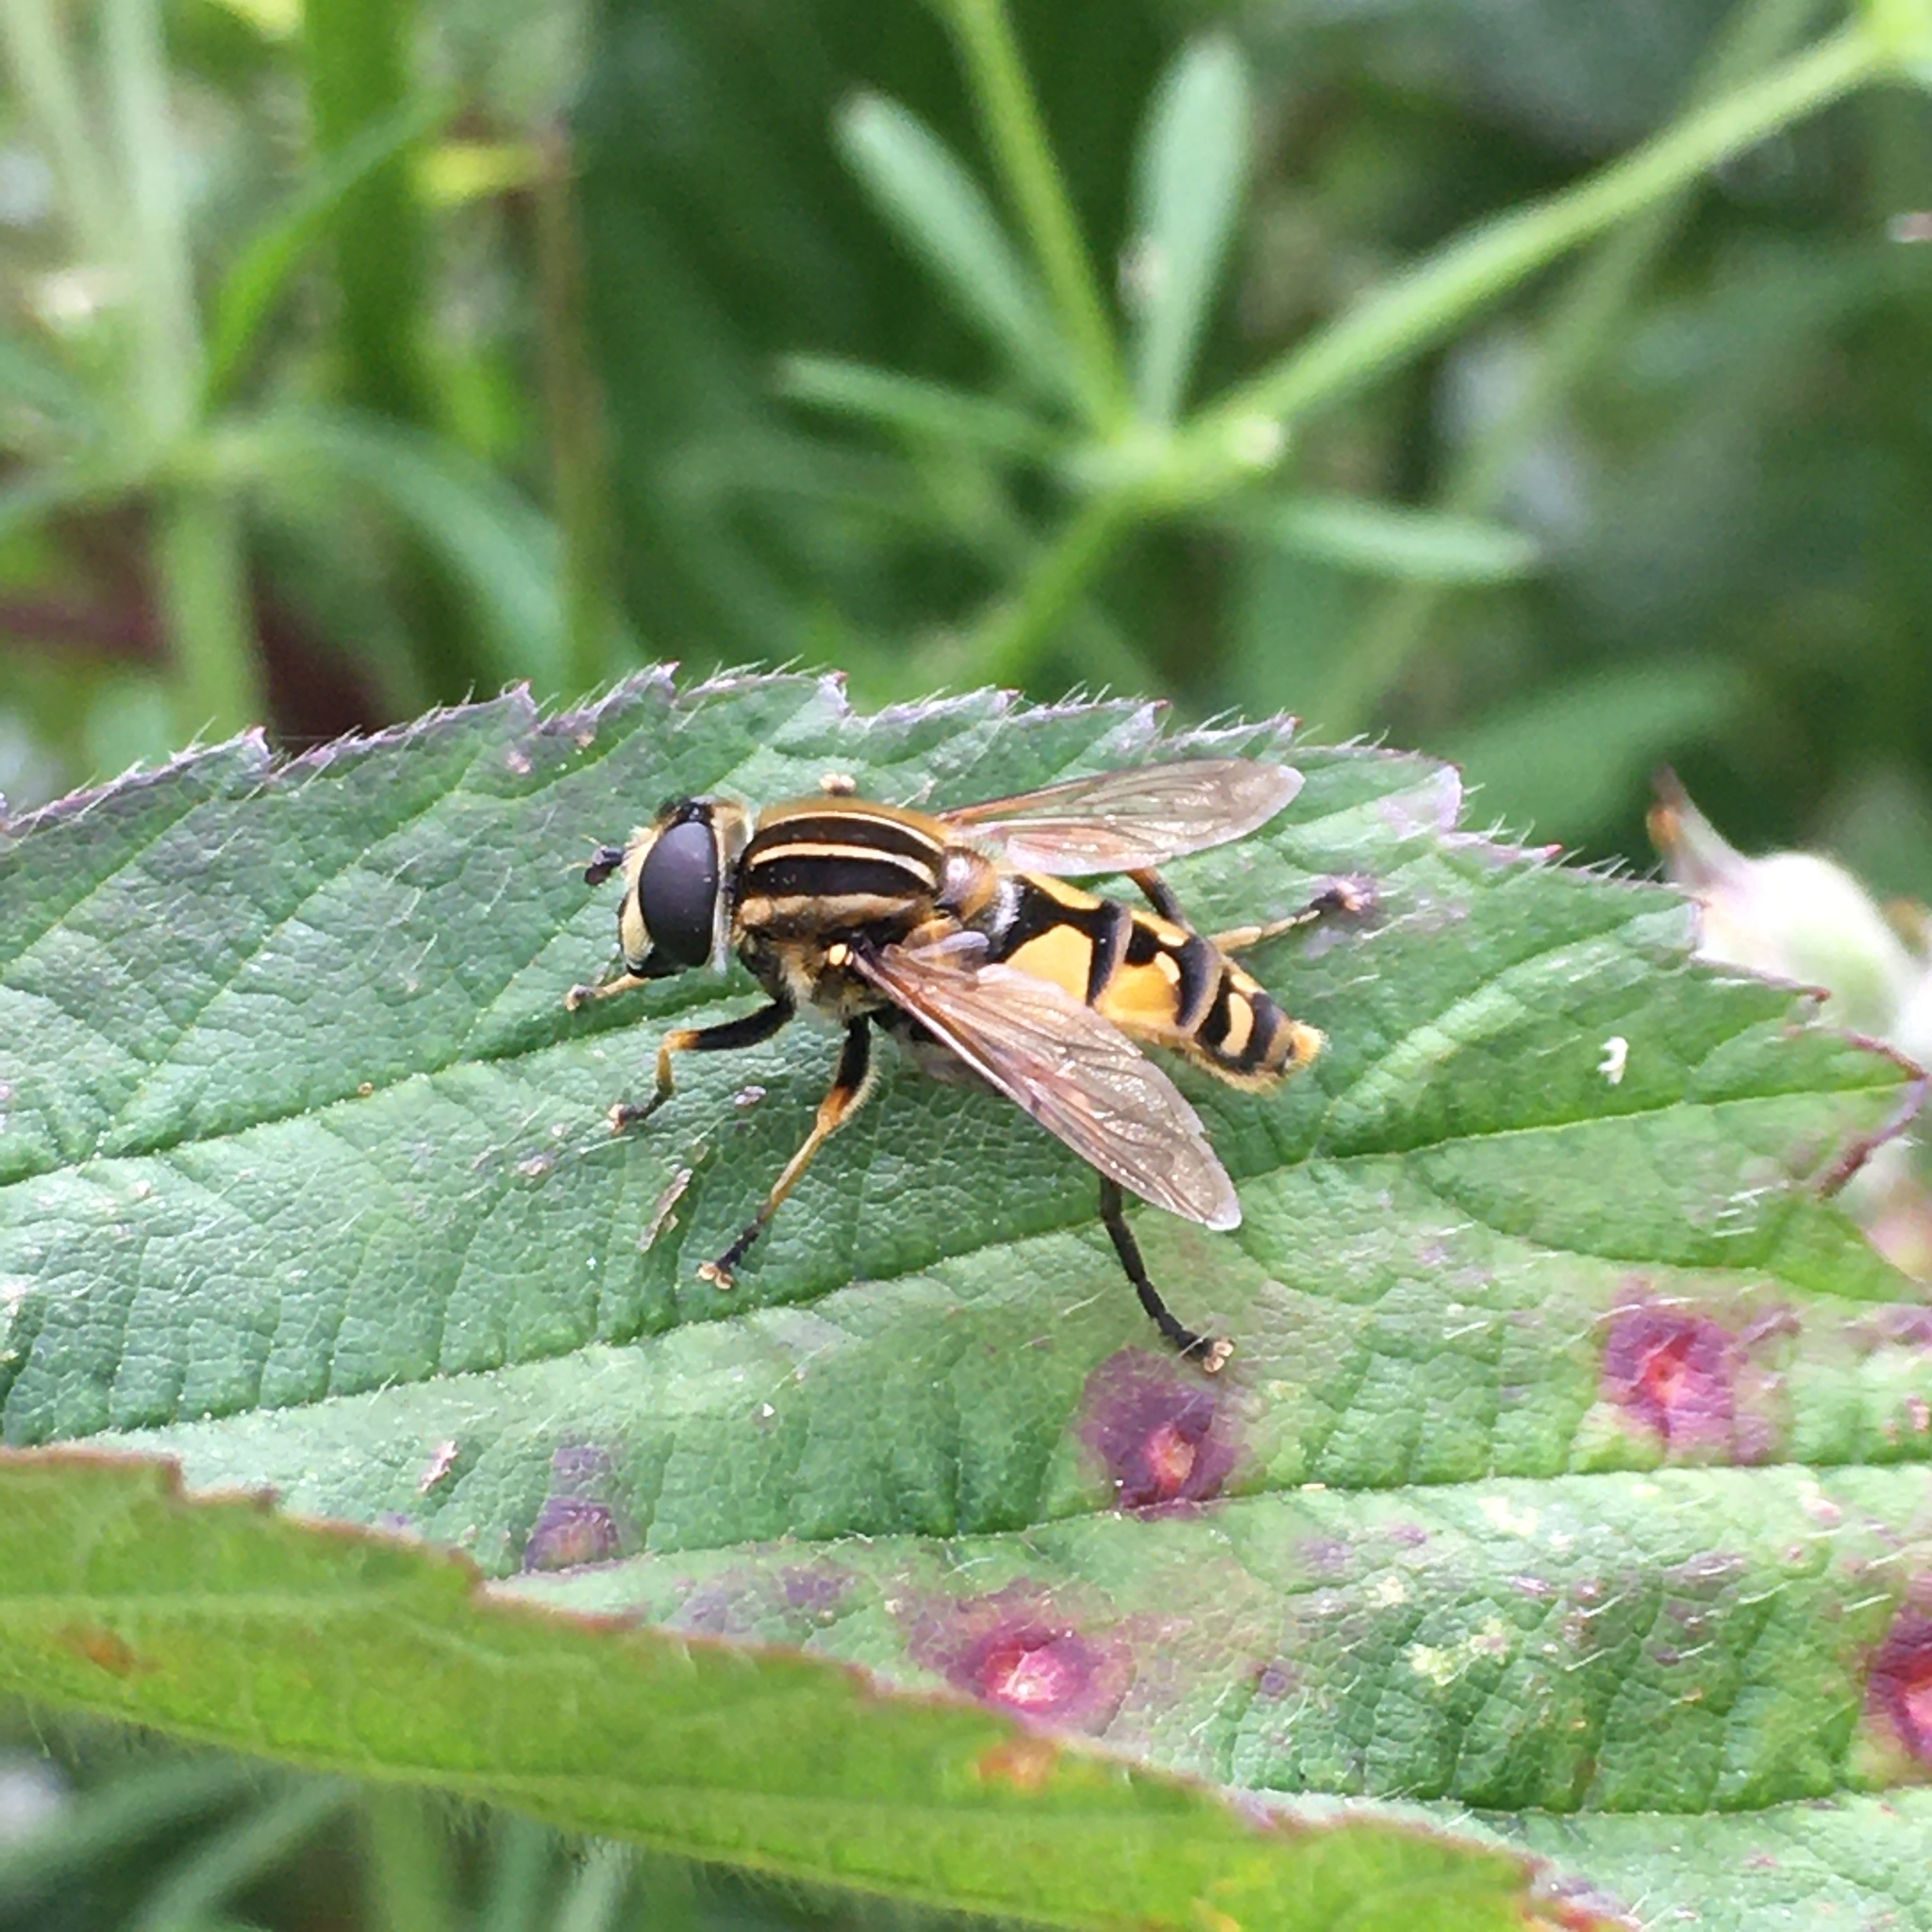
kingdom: Animalia
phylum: Arthropoda
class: Insecta
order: Diptera
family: Syrphidae
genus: Helophilus
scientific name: Helophilus pendulus
